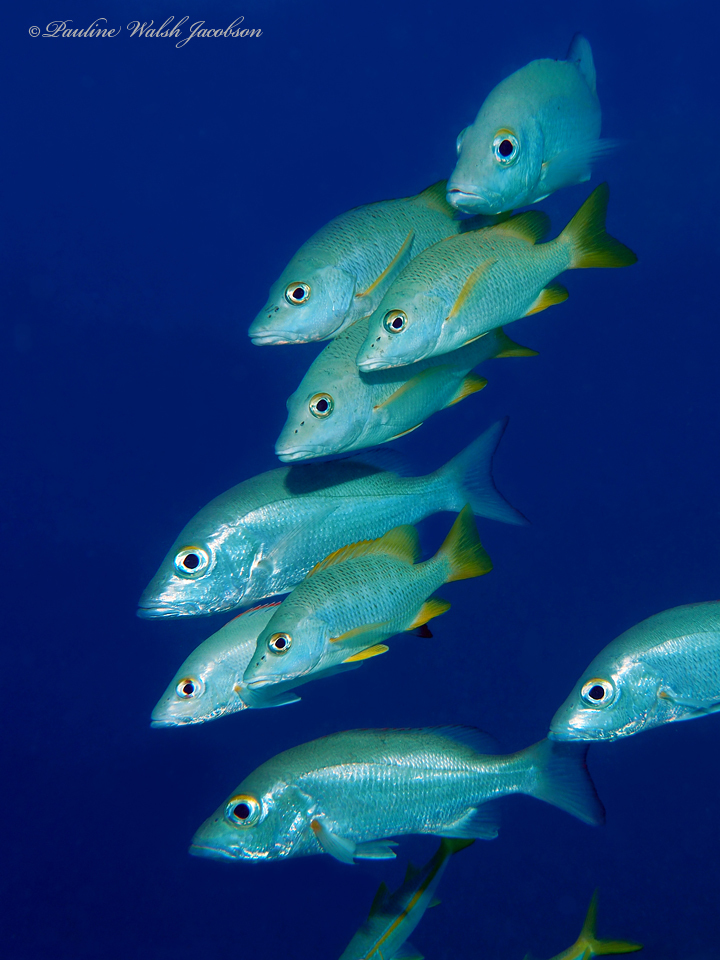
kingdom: Animalia
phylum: Chordata
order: Perciformes
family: Lutjanidae
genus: Lutjanus
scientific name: Lutjanus mahogoni
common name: Spot snapper
